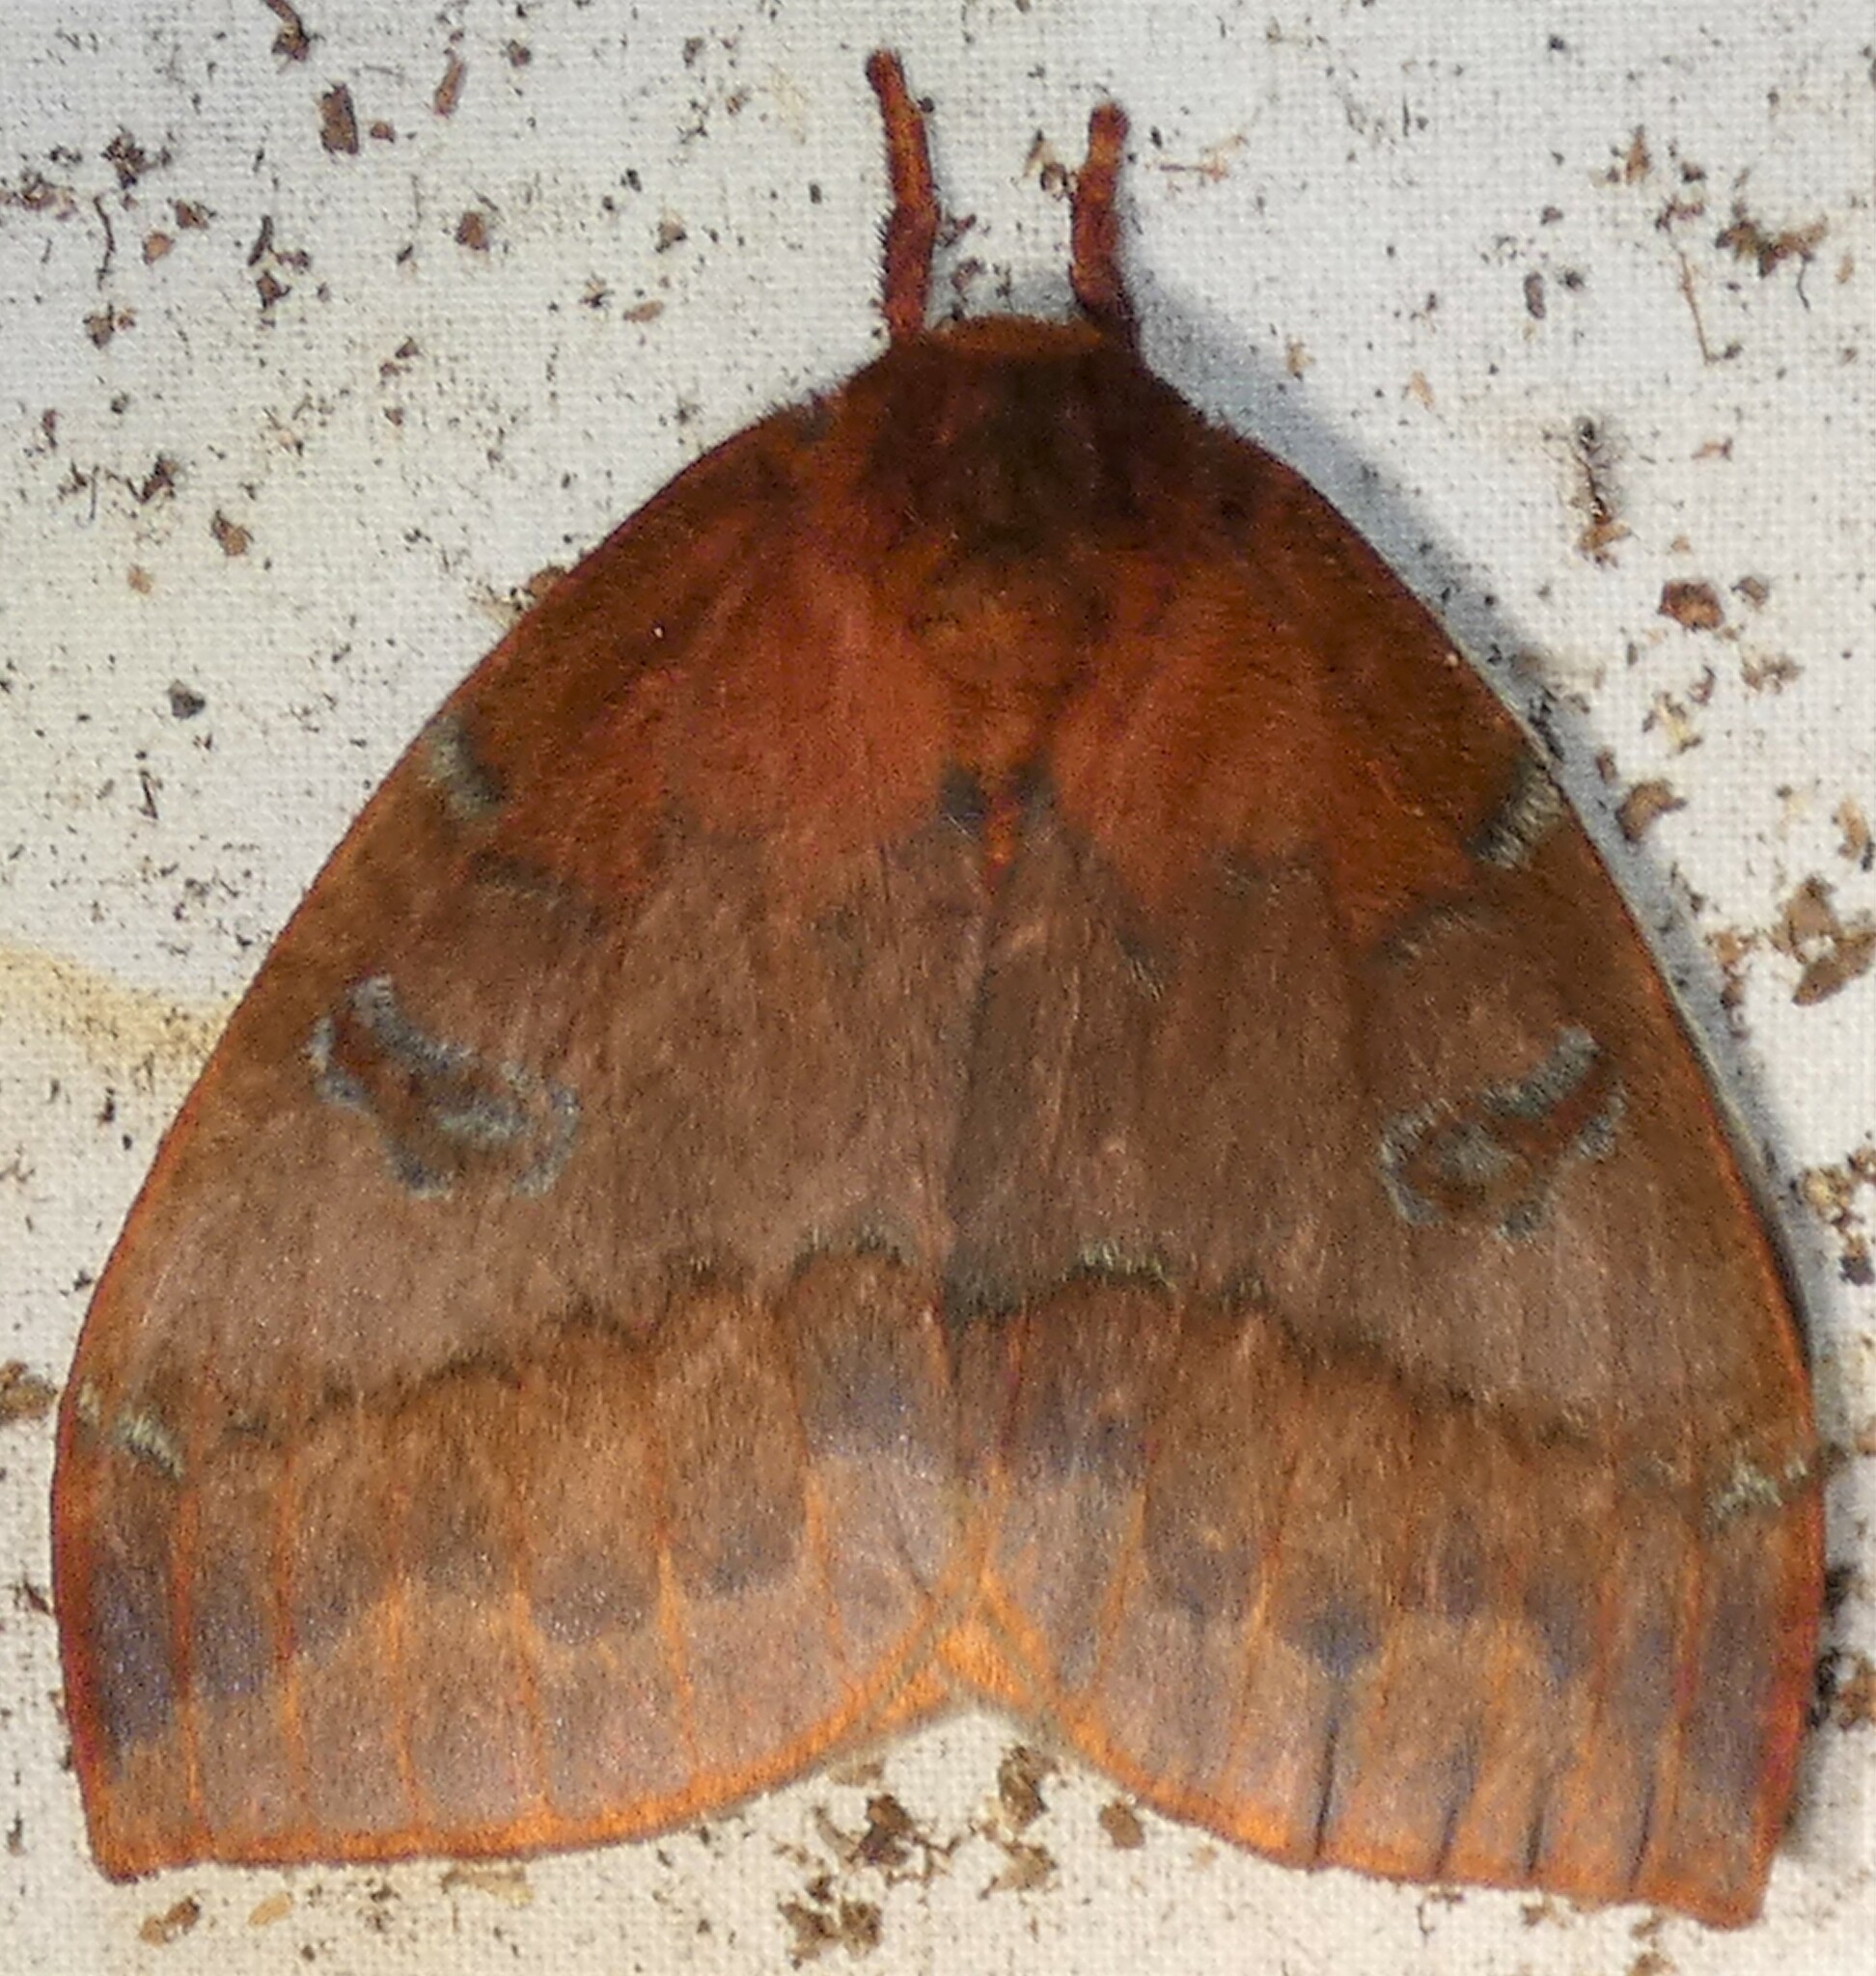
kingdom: Animalia
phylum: Arthropoda
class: Insecta
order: Lepidoptera
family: Saturniidae
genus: Automeris
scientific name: Automeris io
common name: Io moth
